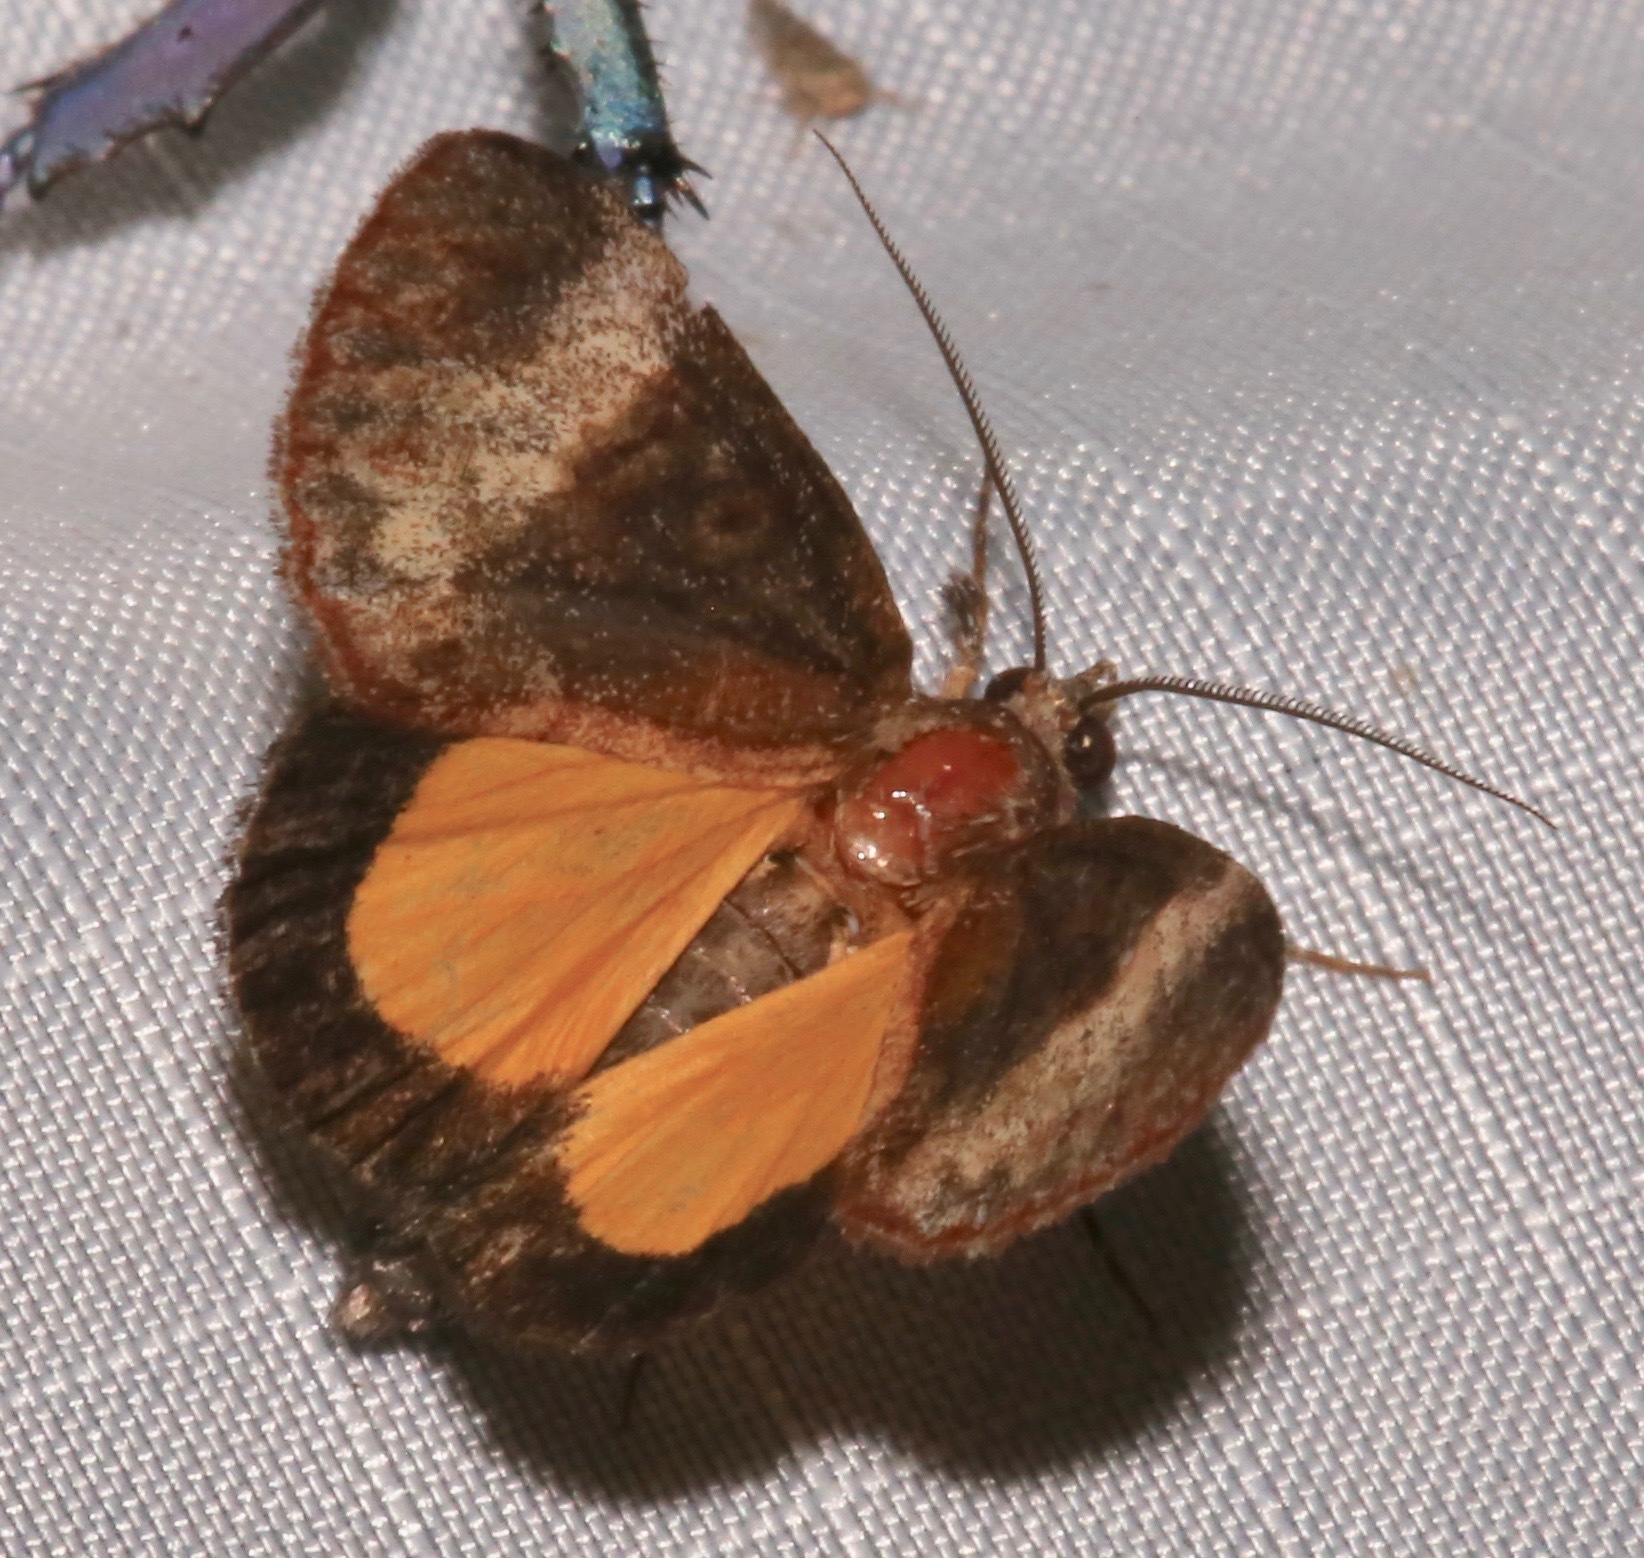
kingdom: Animalia
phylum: Arthropoda
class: Insecta
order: Lepidoptera
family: Noctuidae
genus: Gerra
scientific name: Gerra sevorsa
